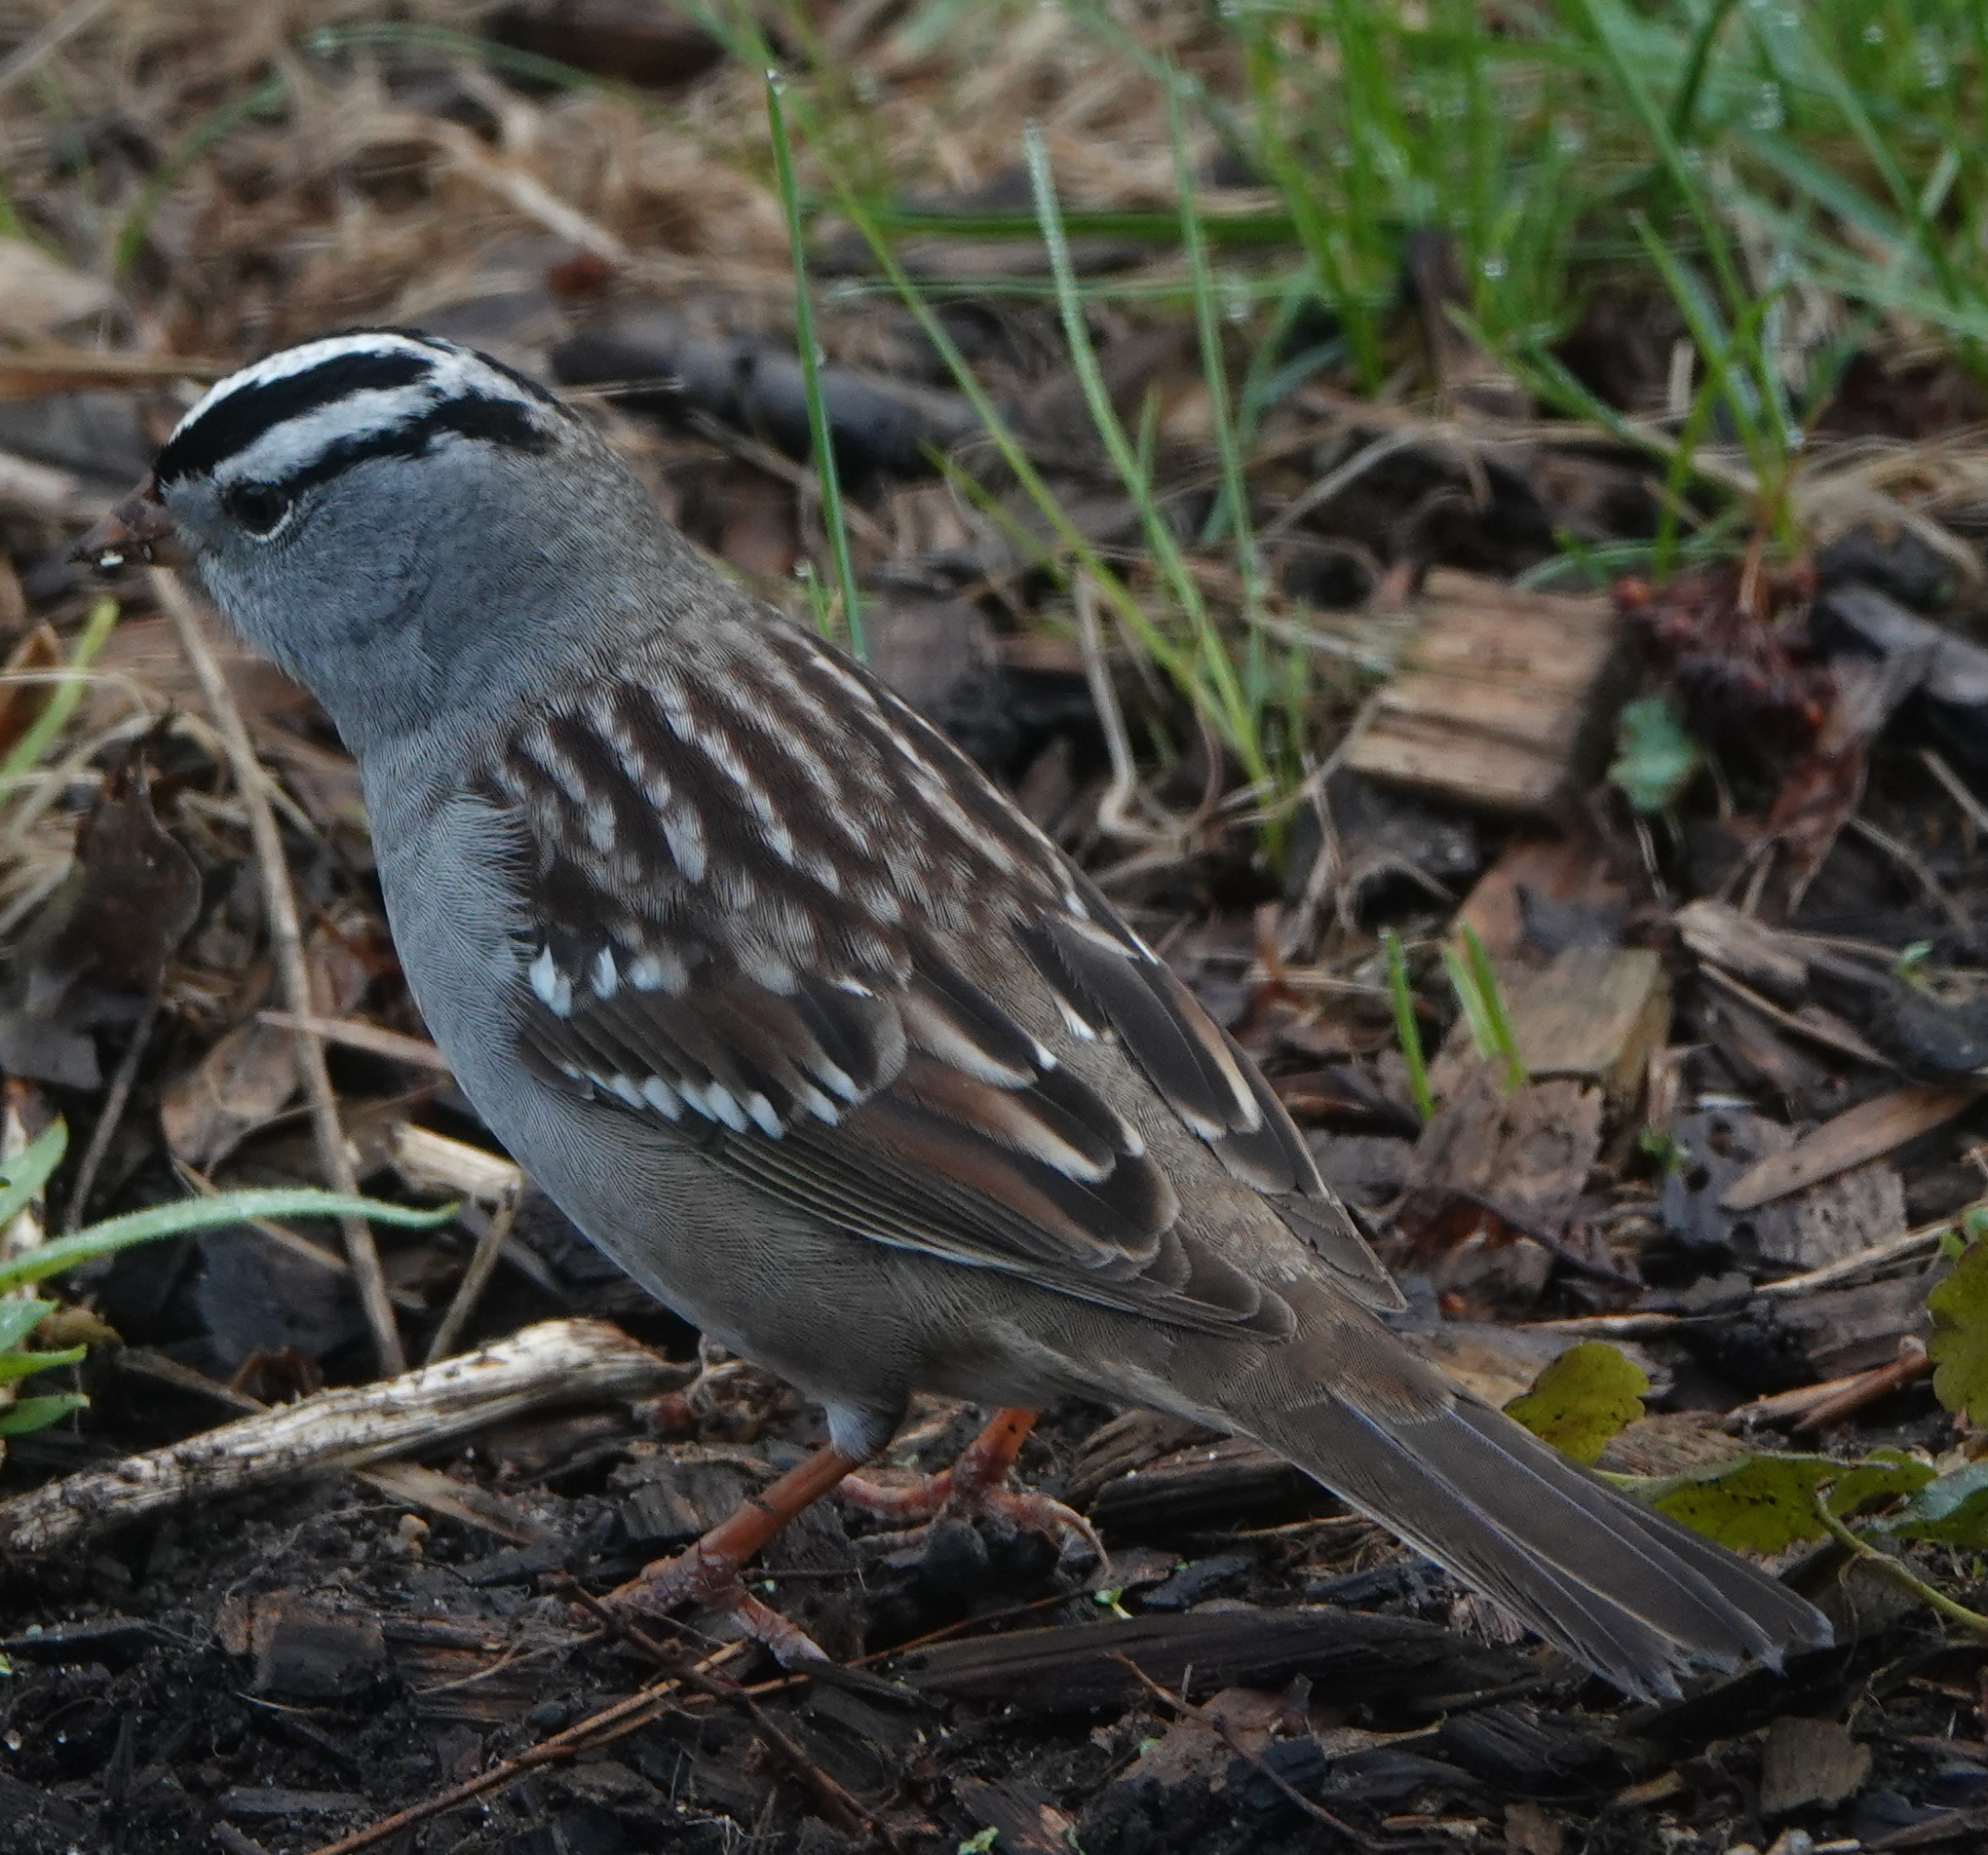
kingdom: Animalia
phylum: Chordata
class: Aves
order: Passeriformes
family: Passerellidae
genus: Zonotrichia
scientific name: Zonotrichia leucophrys
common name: White-crowned sparrow
